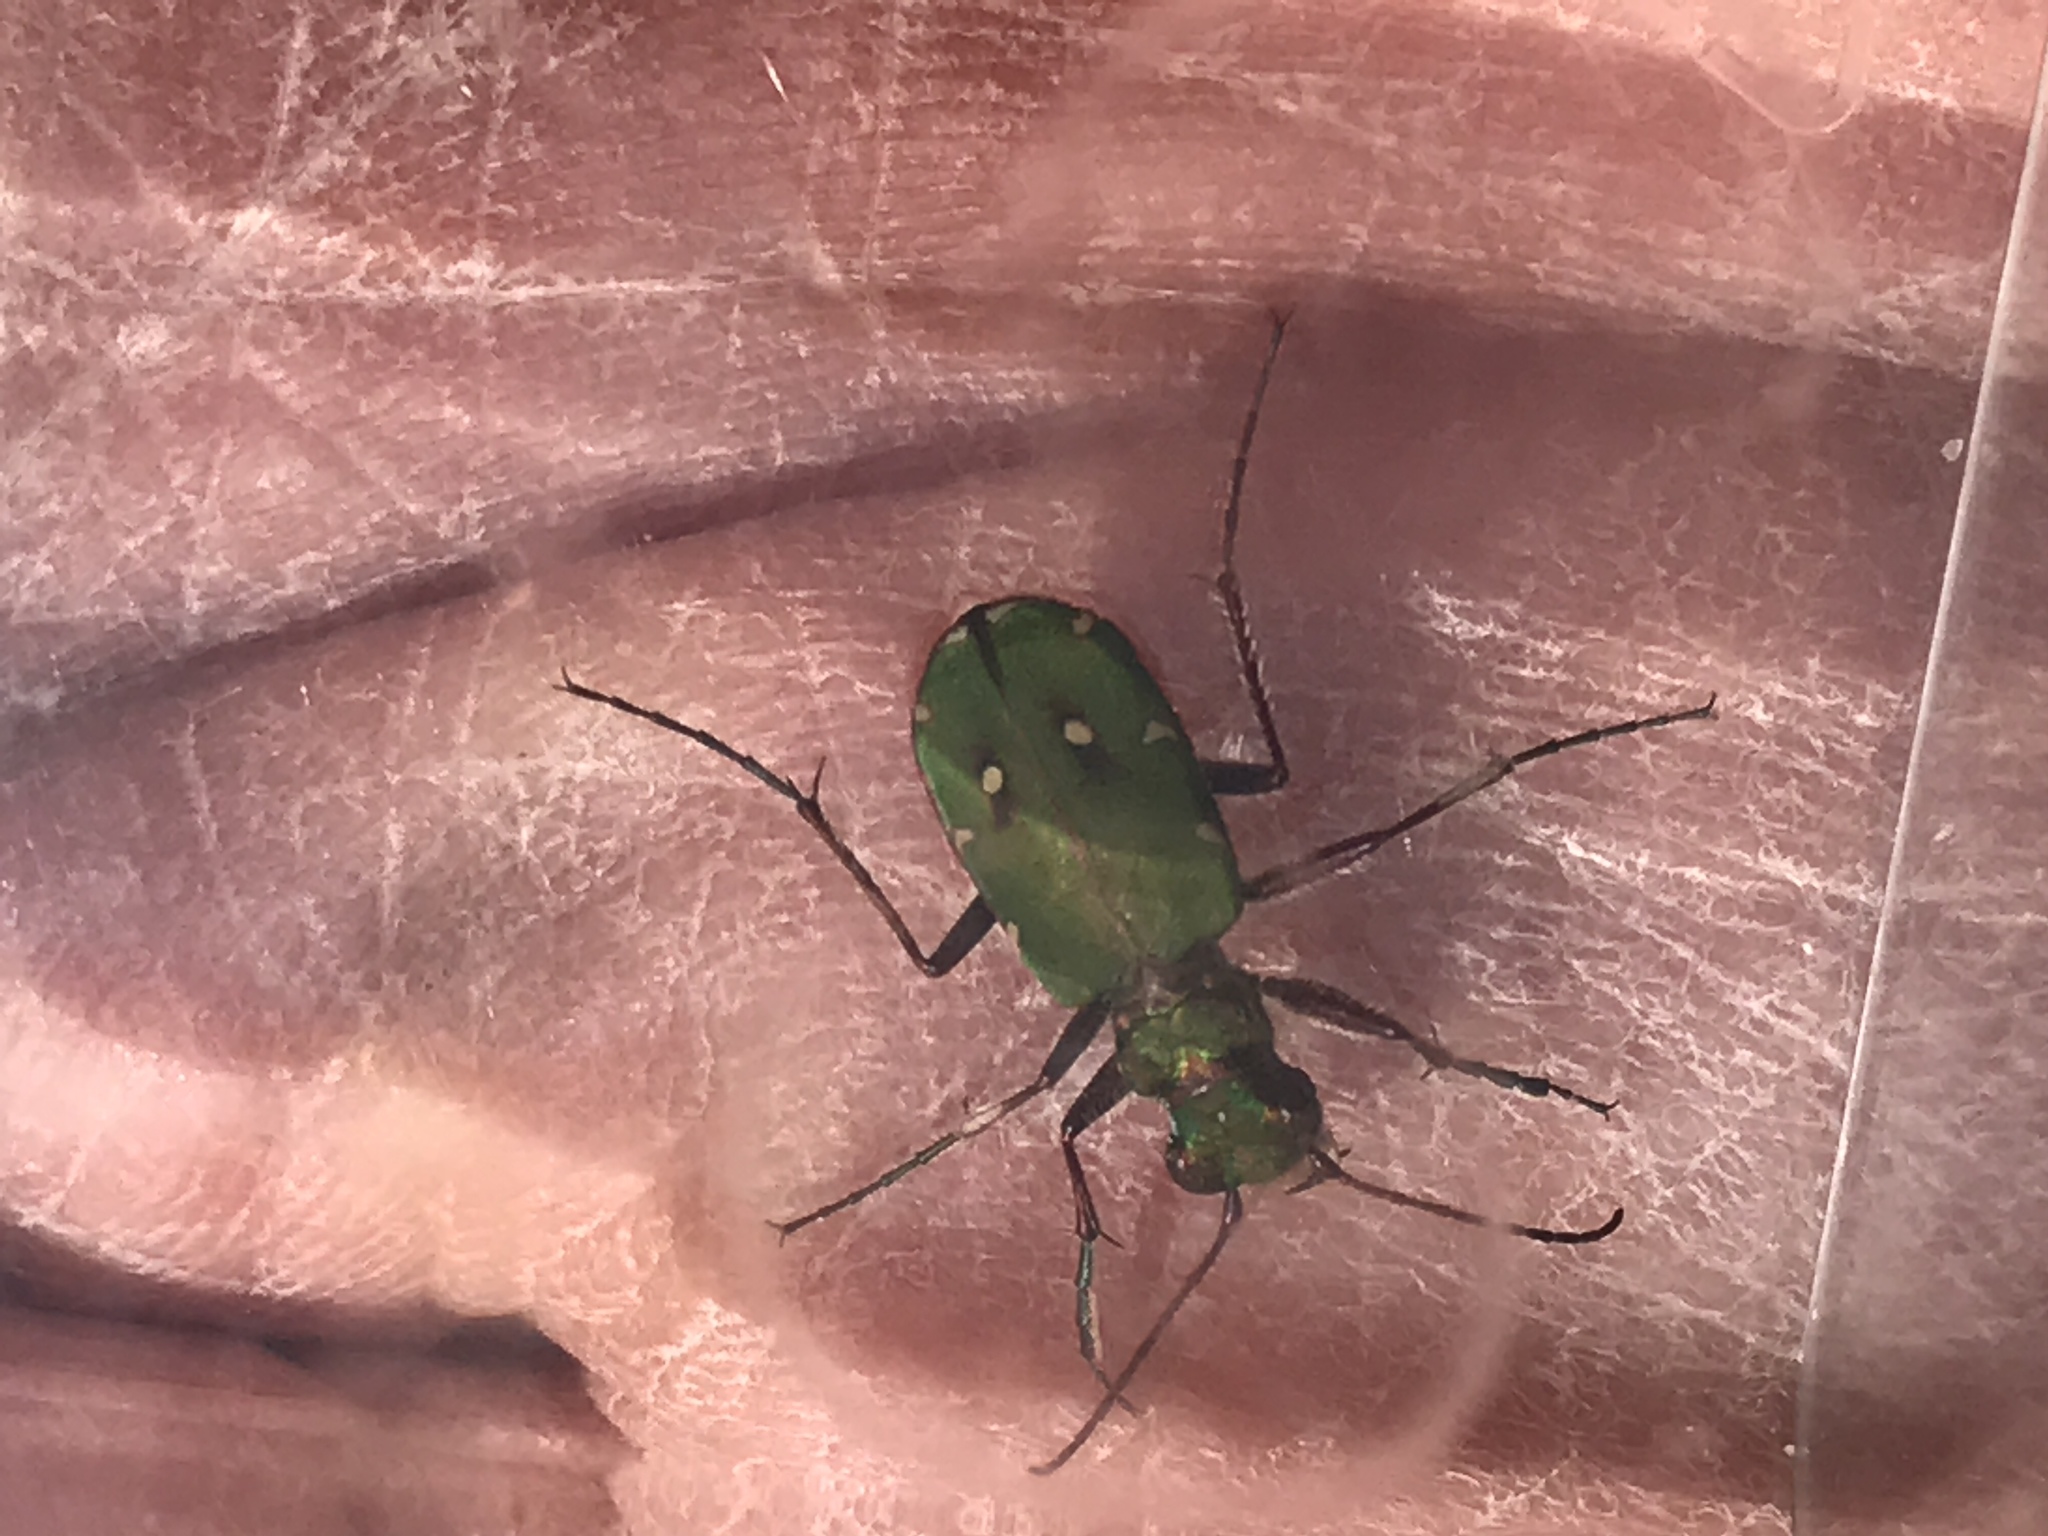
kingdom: Animalia
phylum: Arthropoda
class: Insecta
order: Coleoptera
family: Carabidae
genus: Cicindela
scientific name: Cicindela campestris
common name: Common tiger beetle
